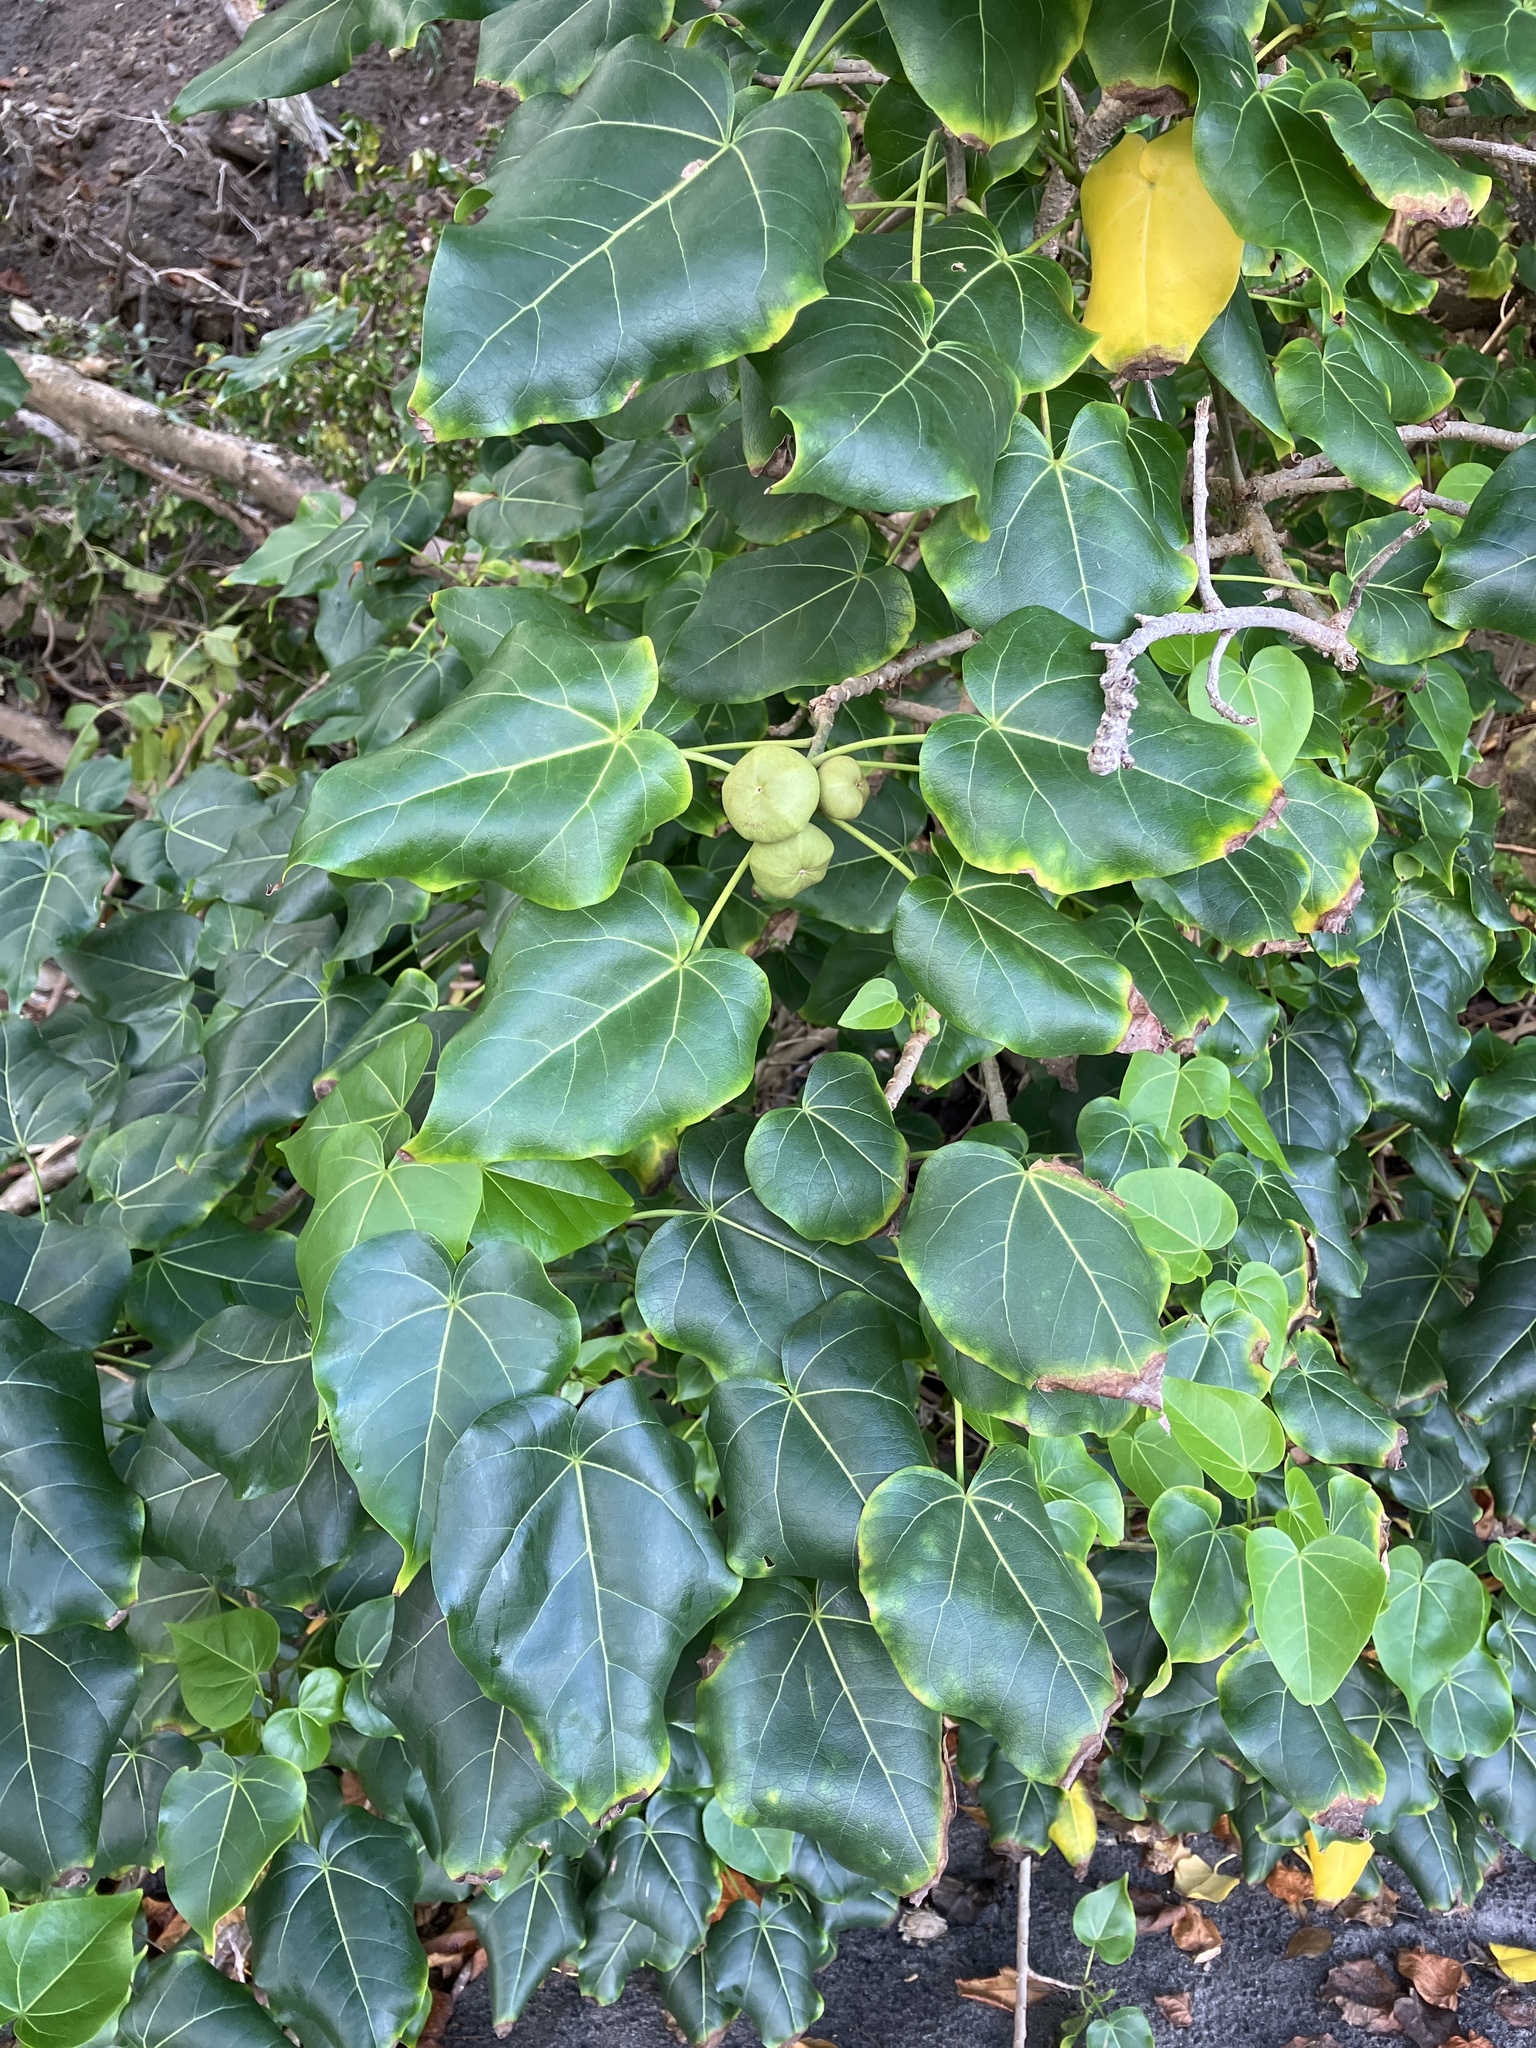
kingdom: Plantae
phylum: Tracheophyta
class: Magnoliopsida
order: Malvales
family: Malvaceae
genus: Thespesia
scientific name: Thespesia populnea
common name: Seaside mahoe
